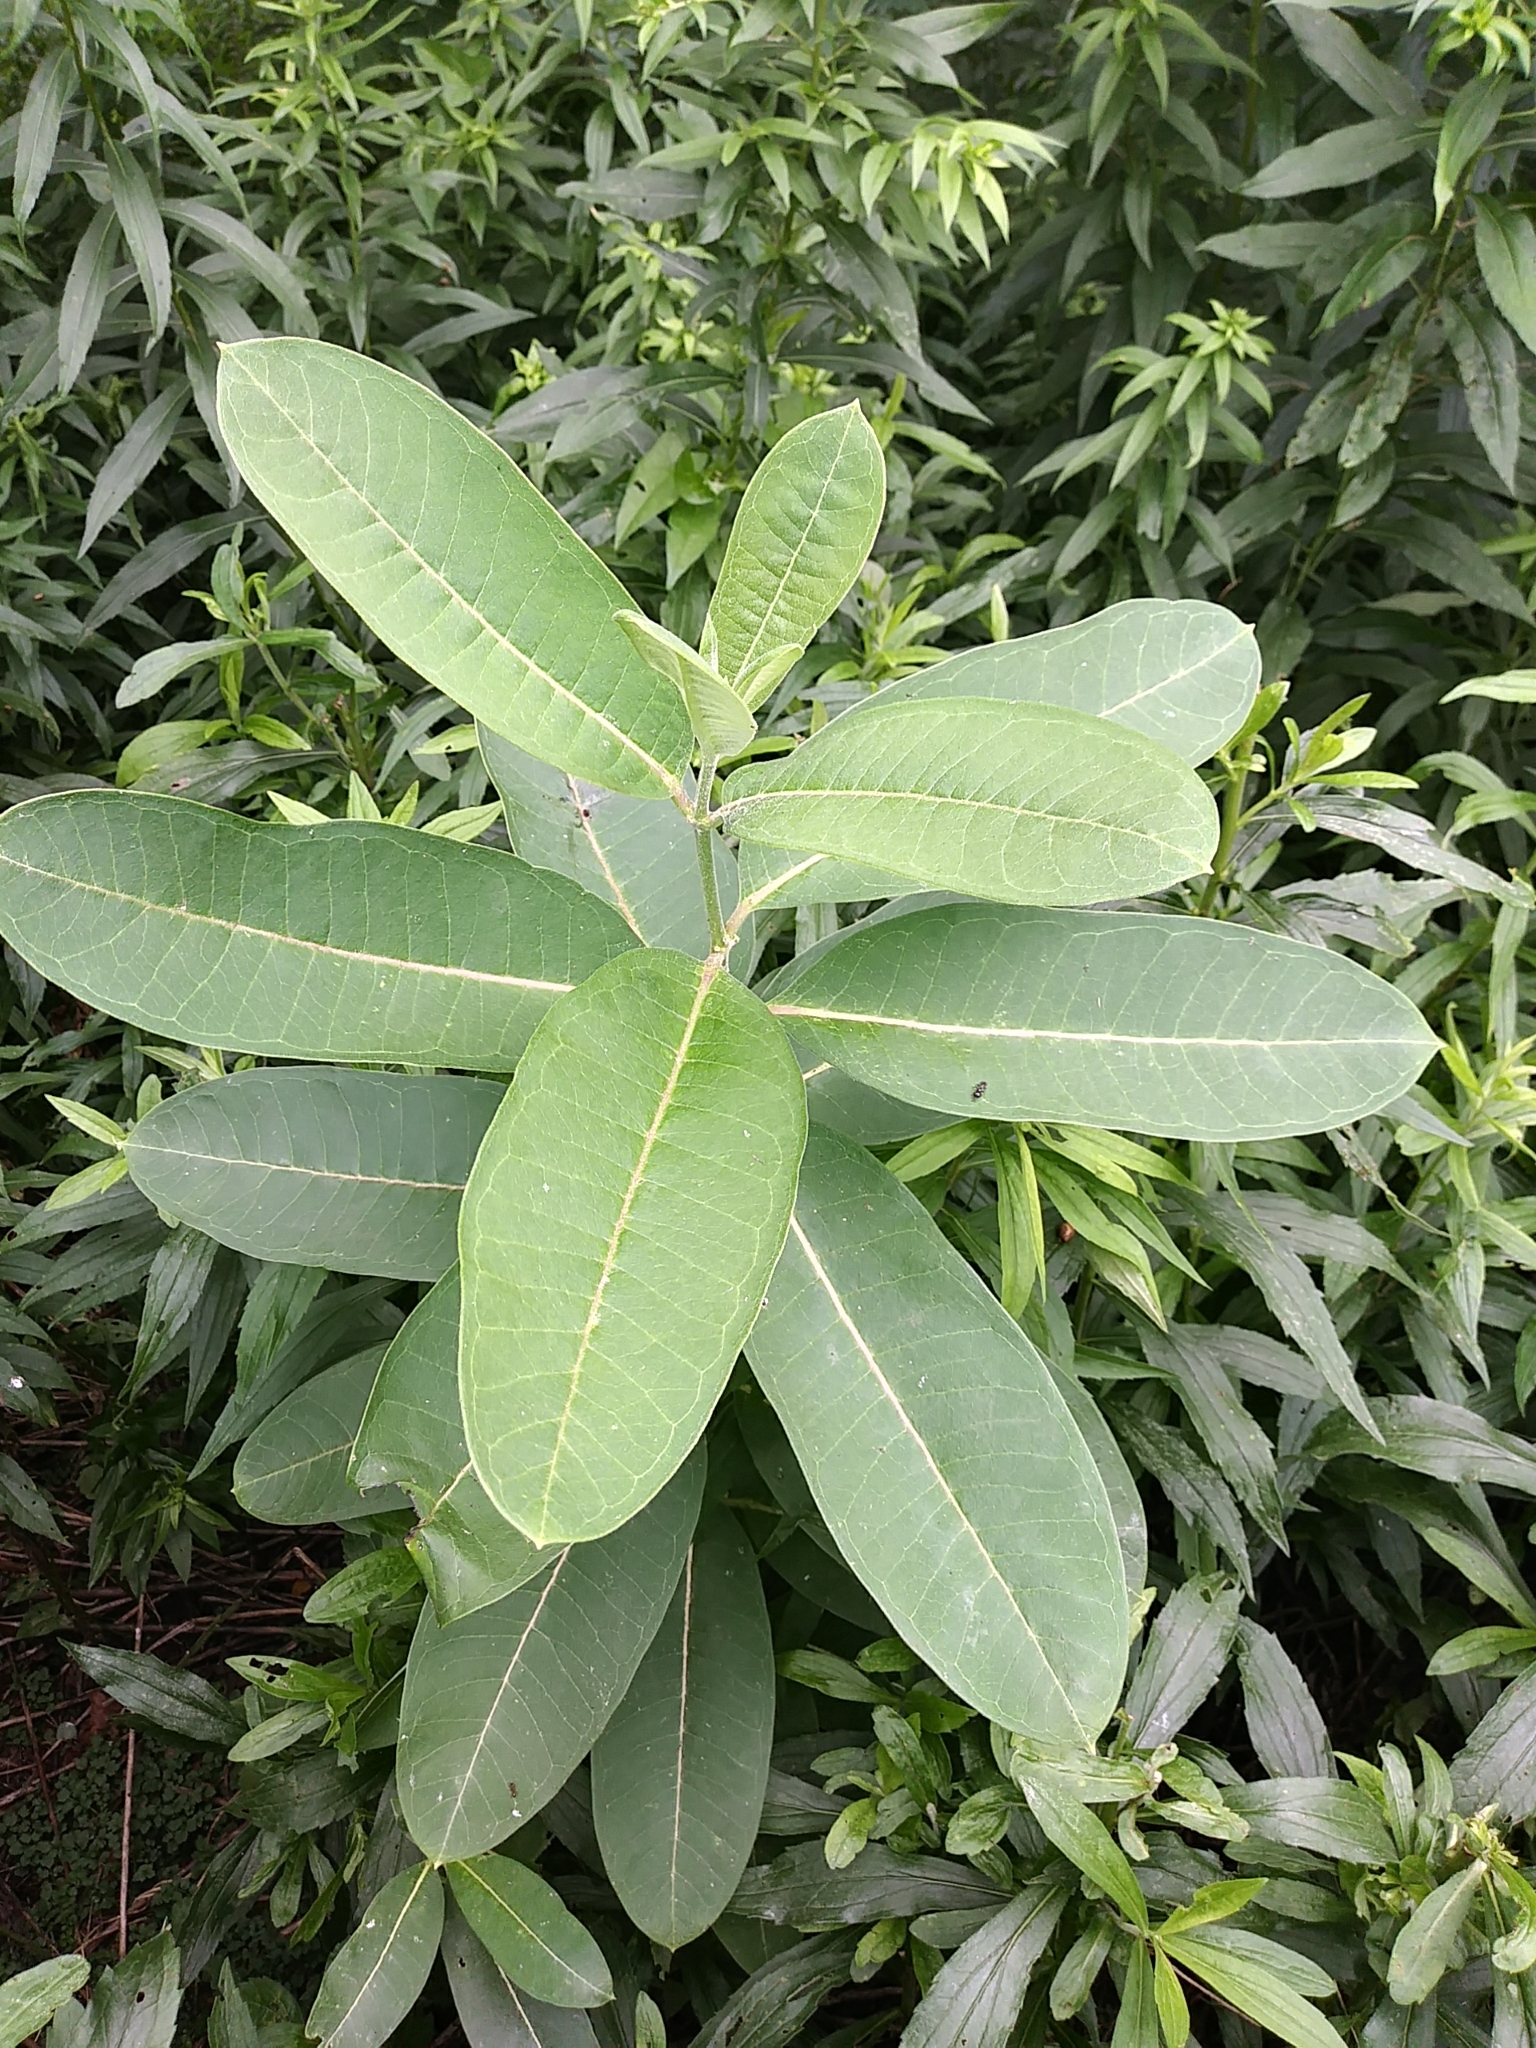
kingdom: Plantae
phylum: Tracheophyta
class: Magnoliopsida
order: Gentianales
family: Apocynaceae
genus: Asclepias
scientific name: Asclepias syriaca
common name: Common milkweed
